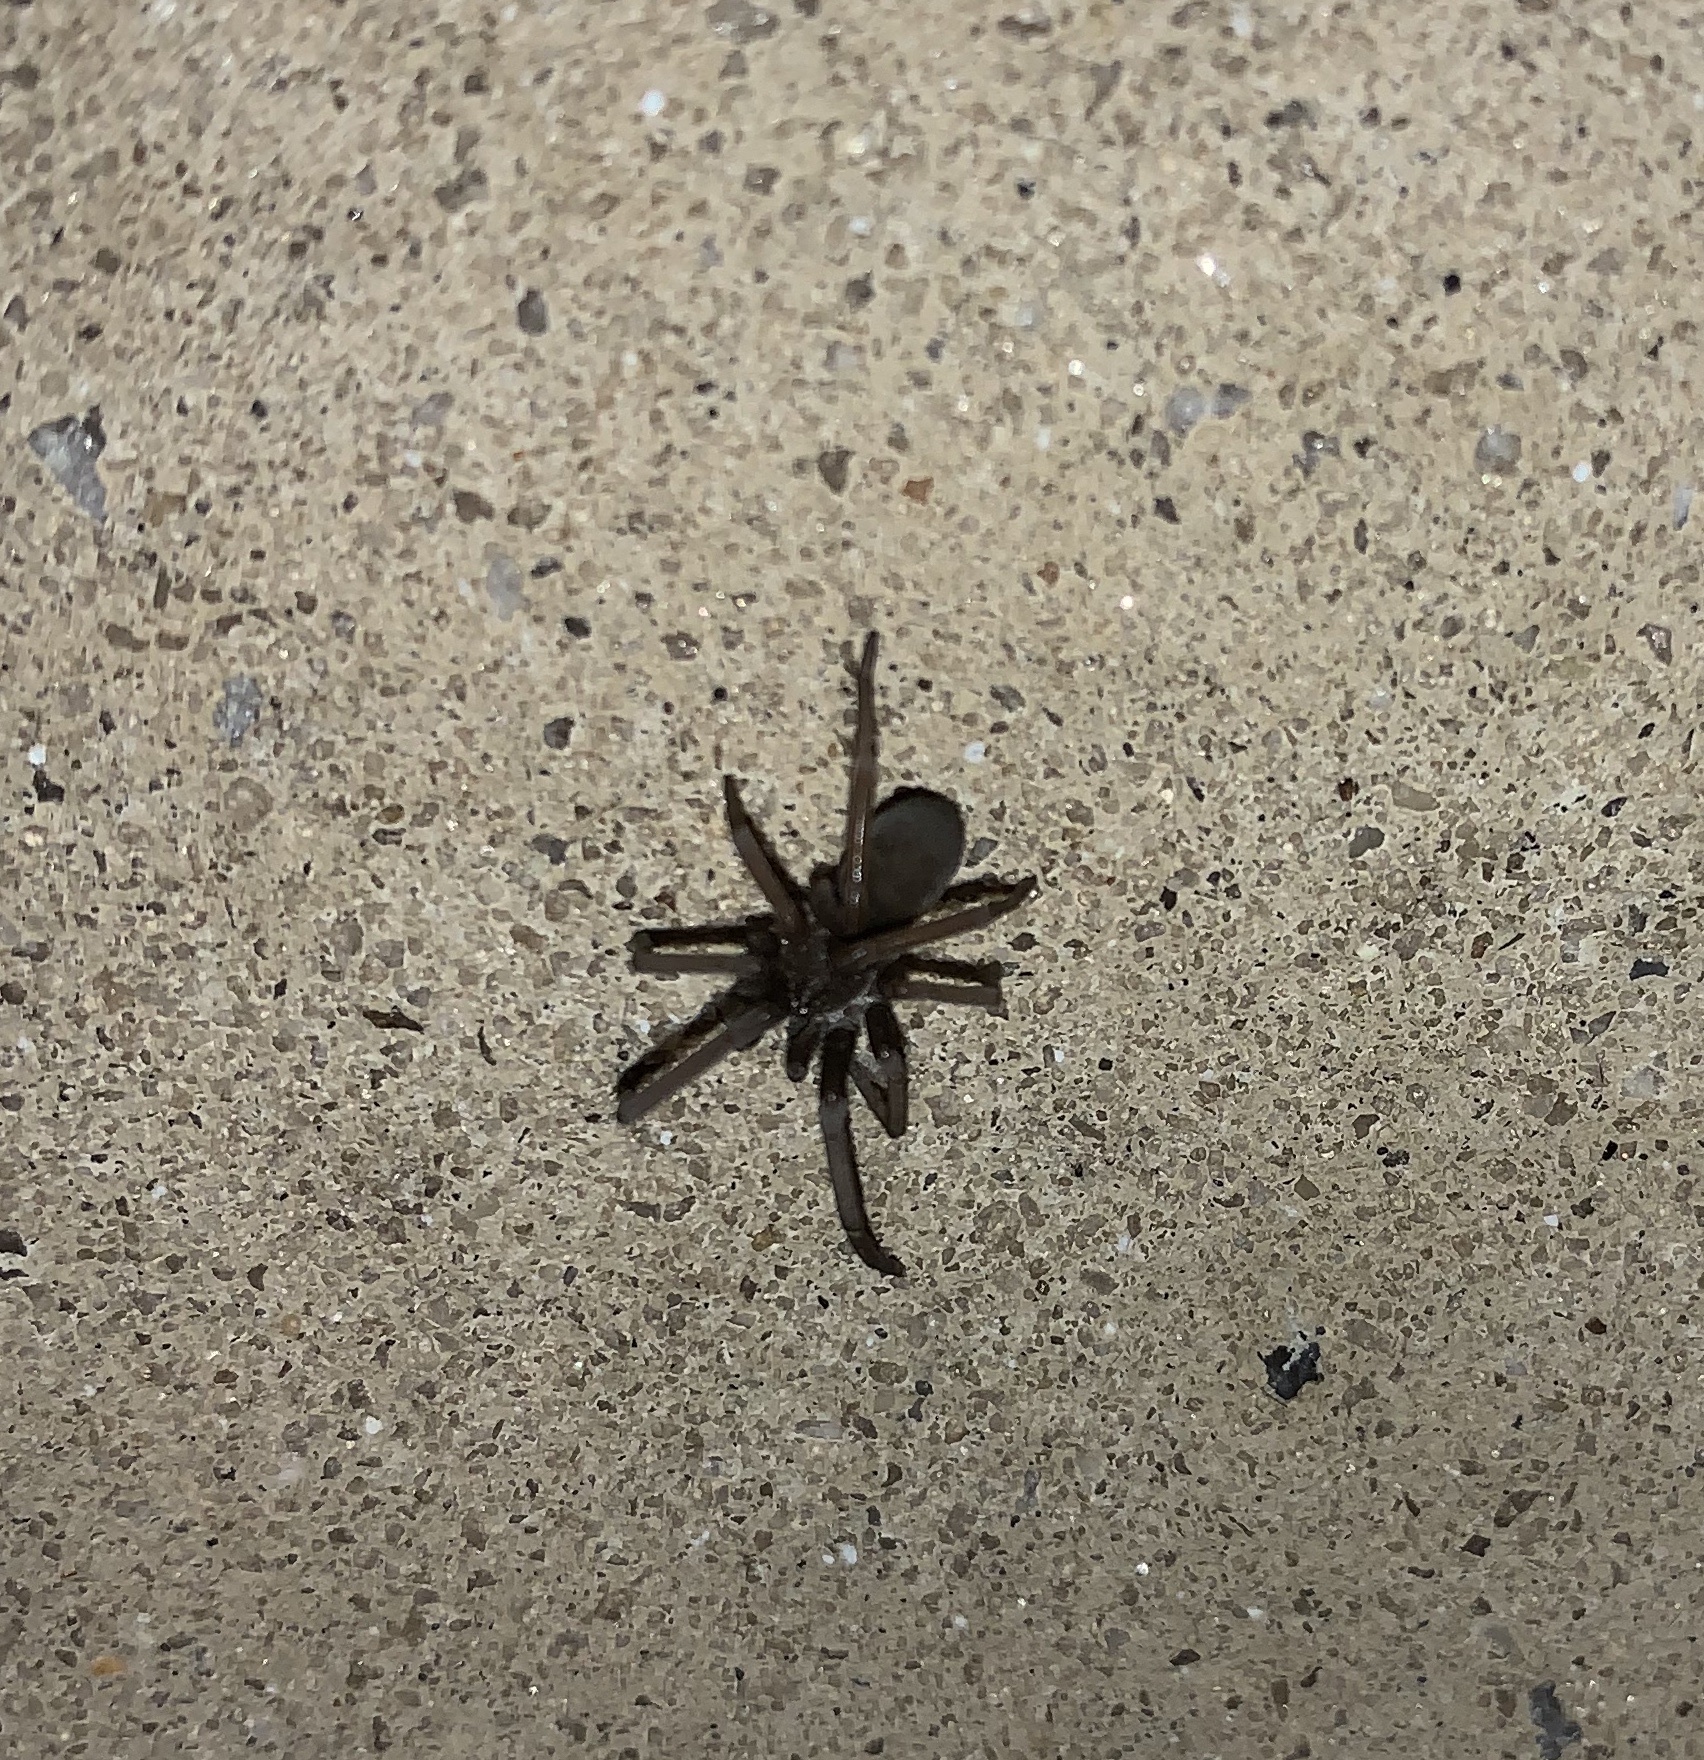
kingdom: Animalia
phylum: Arthropoda
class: Arachnida
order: Araneae
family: Filistatidae
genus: Kukulcania
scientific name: Kukulcania hibernalis
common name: Crevice weaver
